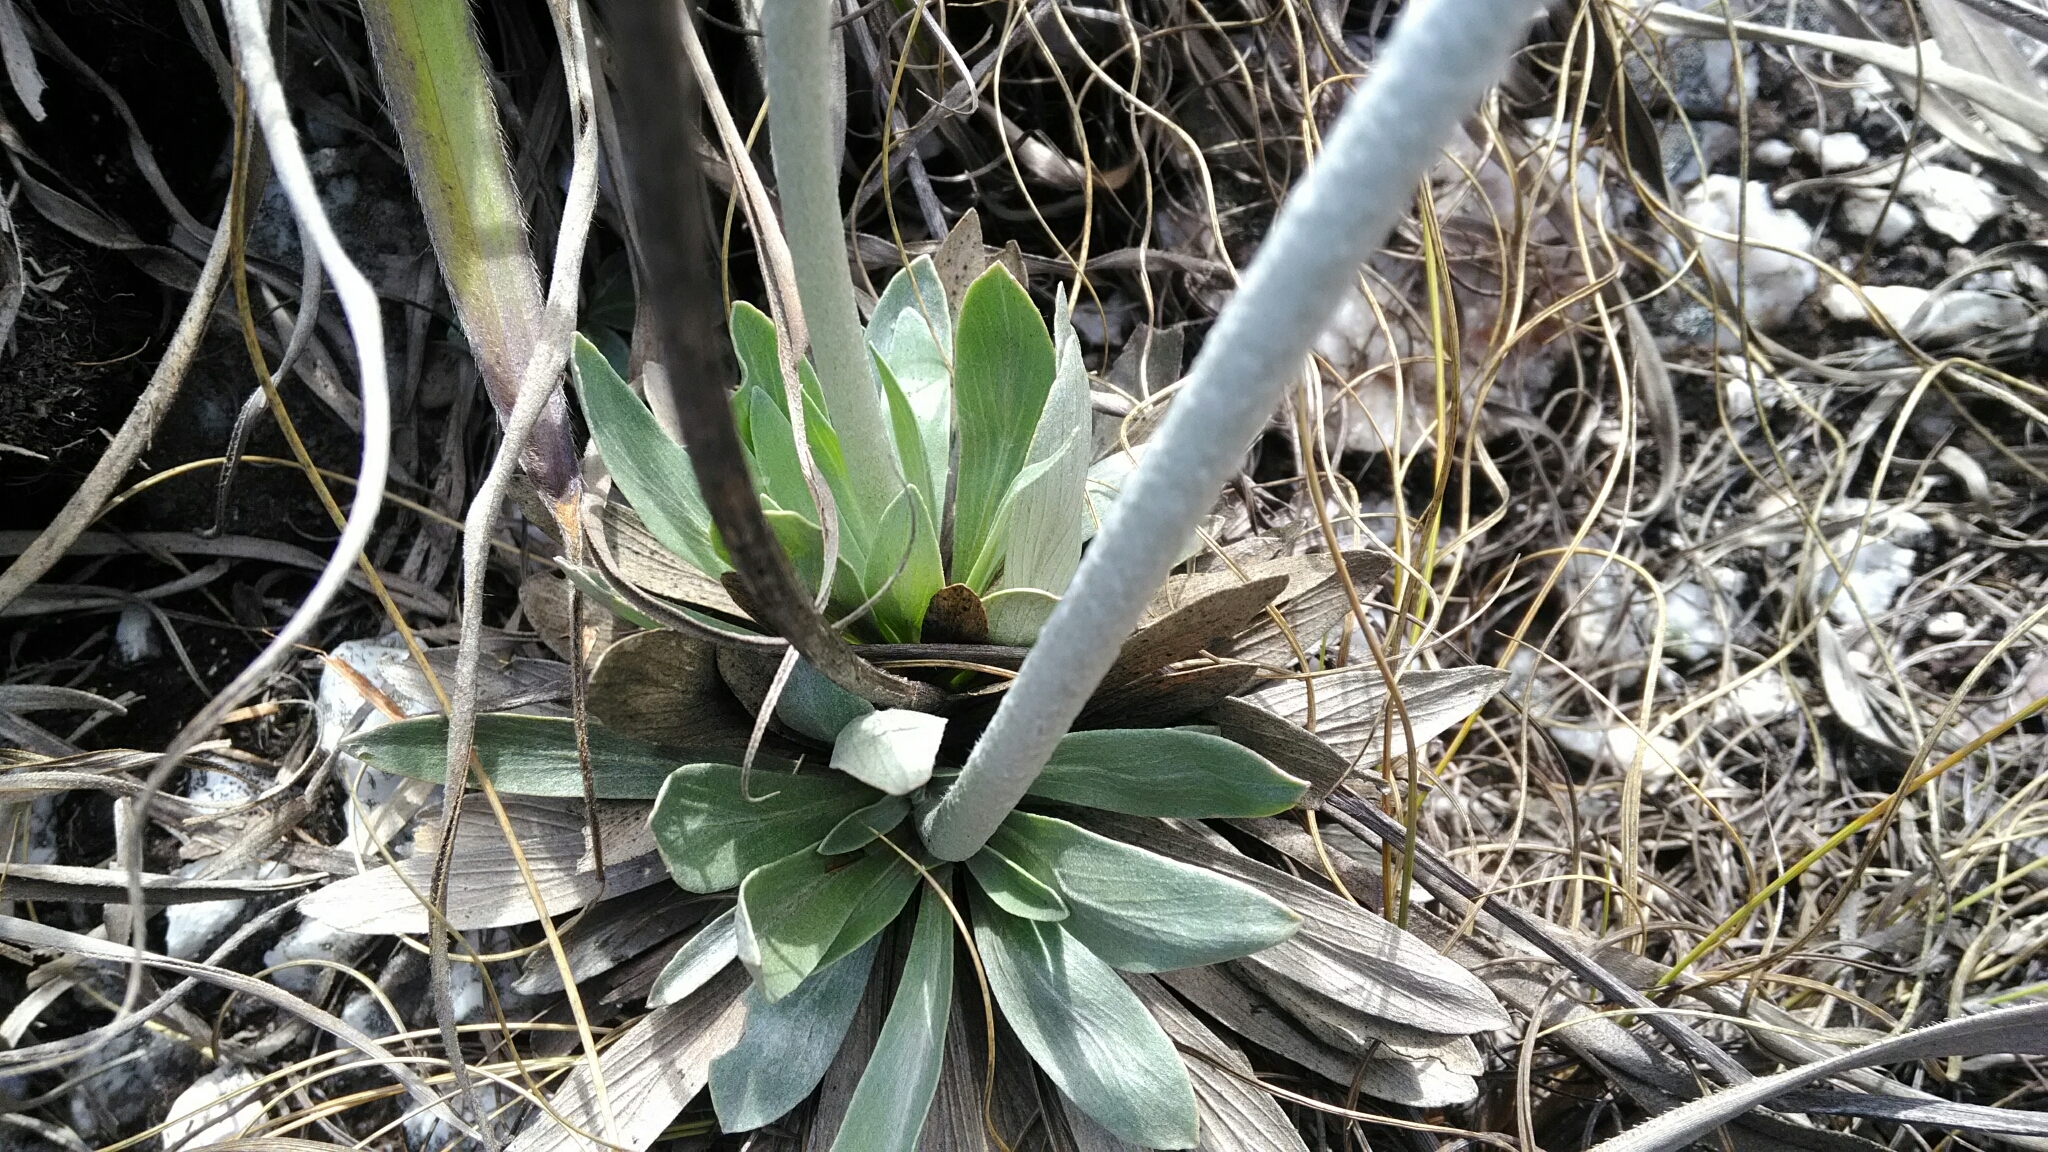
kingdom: Plantae
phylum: Tracheophyta
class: Magnoliopsida
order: Asterales
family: Asteraceae
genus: Chresta
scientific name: Chresta plantaginifolia
